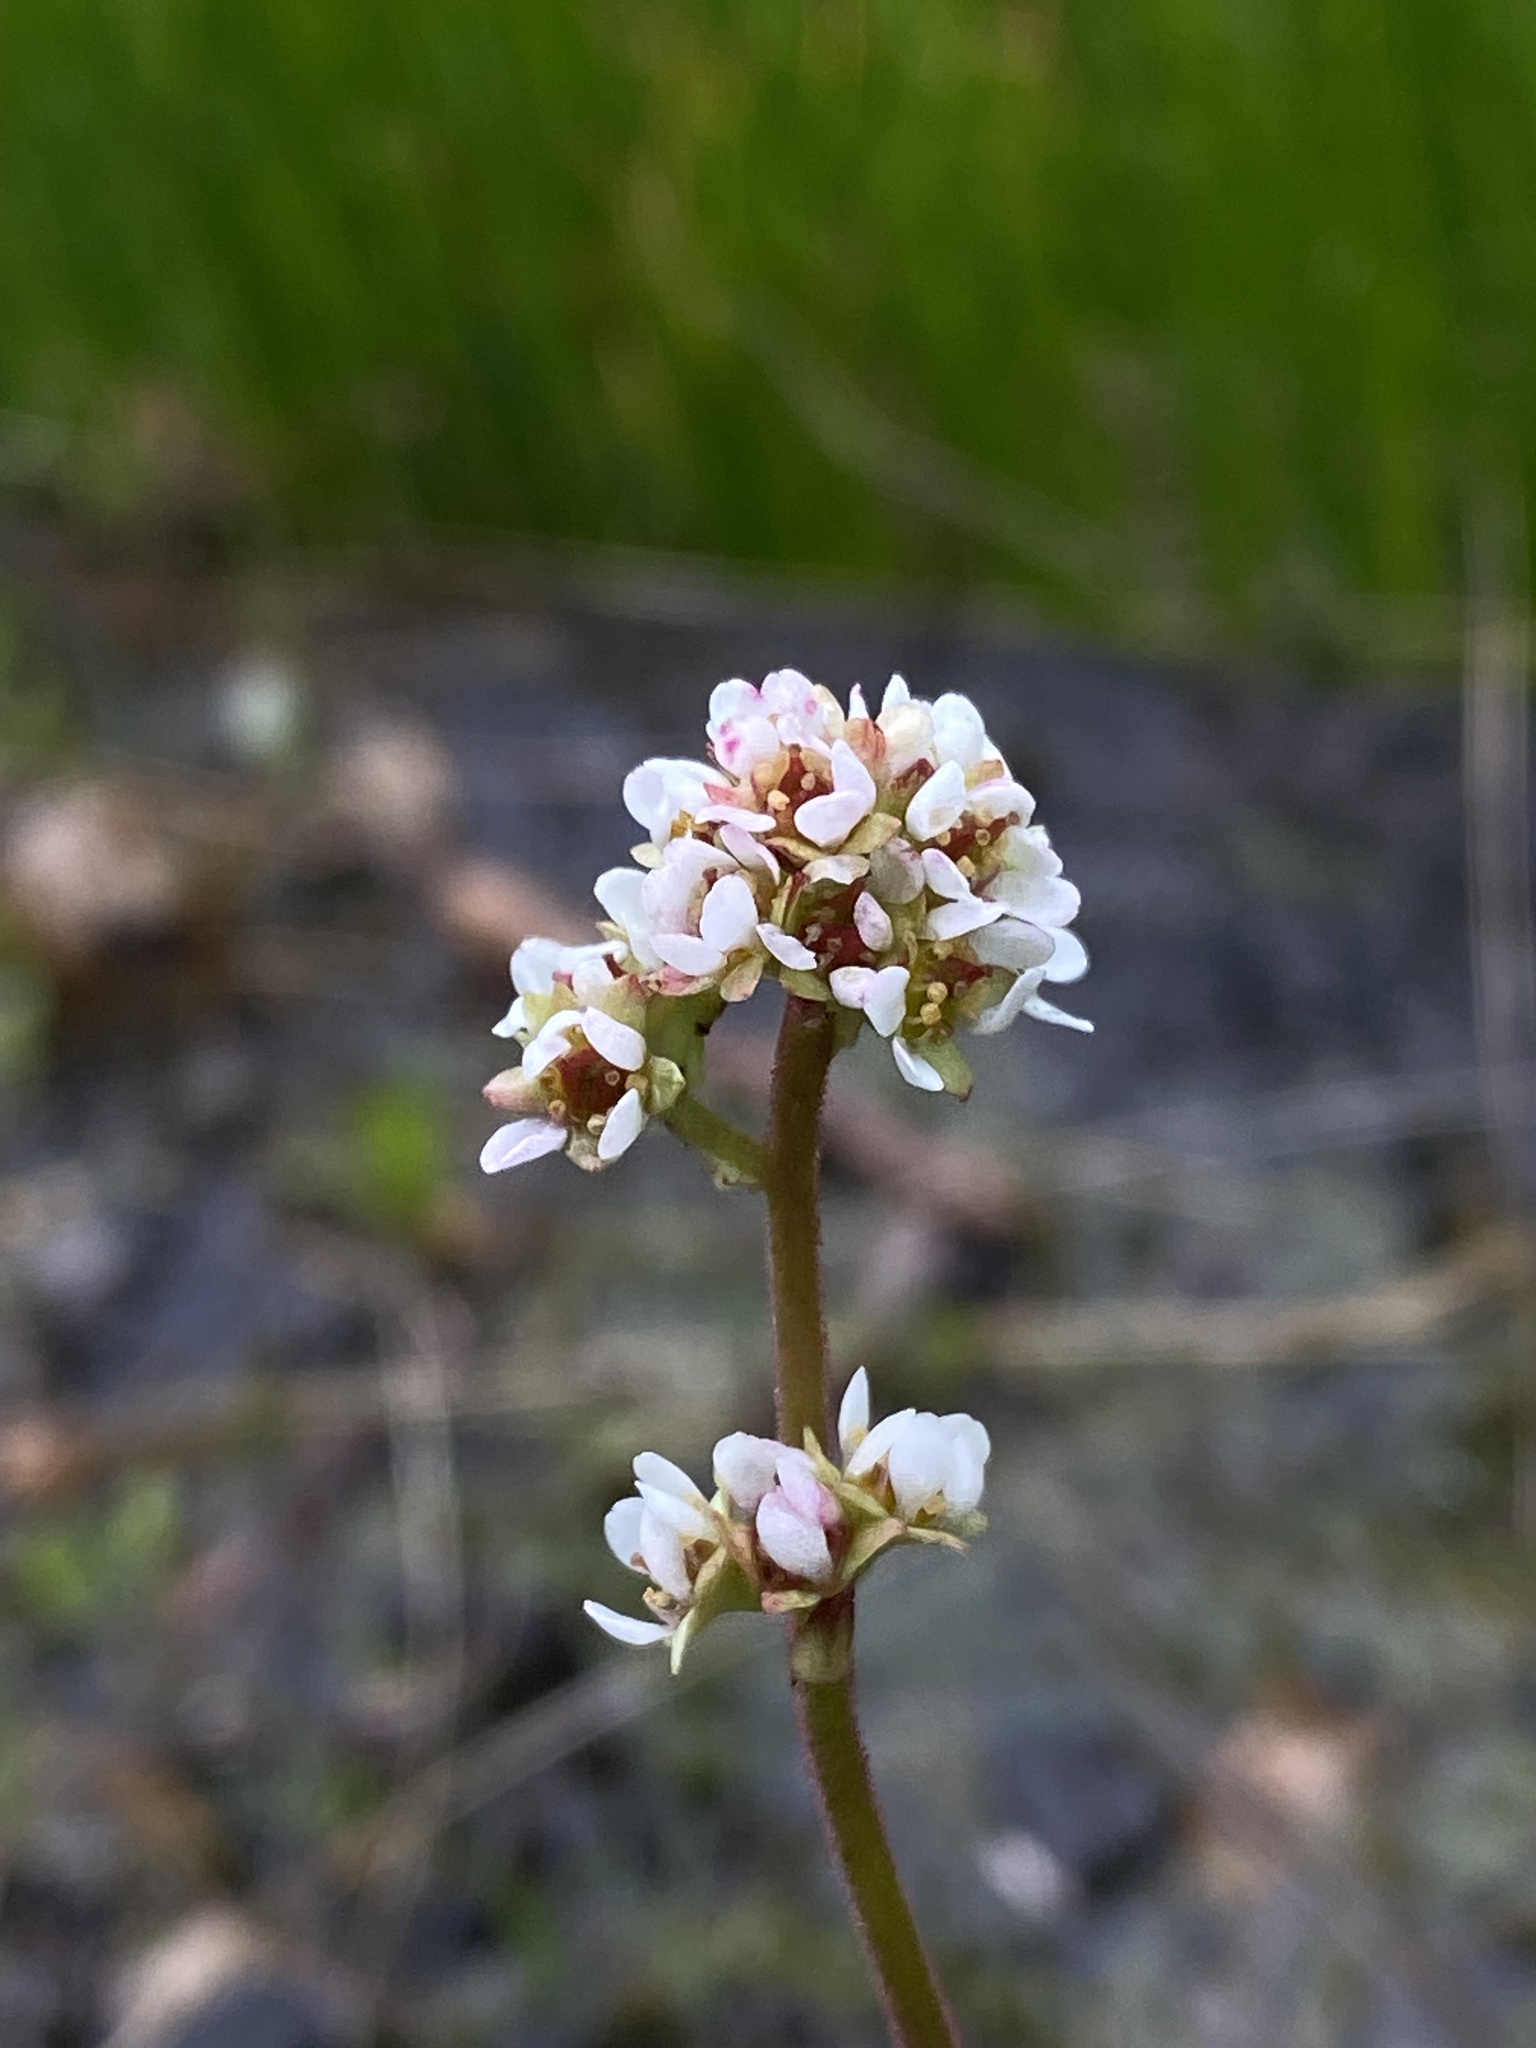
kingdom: Plantae
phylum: Tracheophyta
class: Magnoliopsida
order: Saxifragales
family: Saxifragaceae
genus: Micranthes
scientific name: Micranthes integrifolia
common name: Wholeleaf saxifrage
